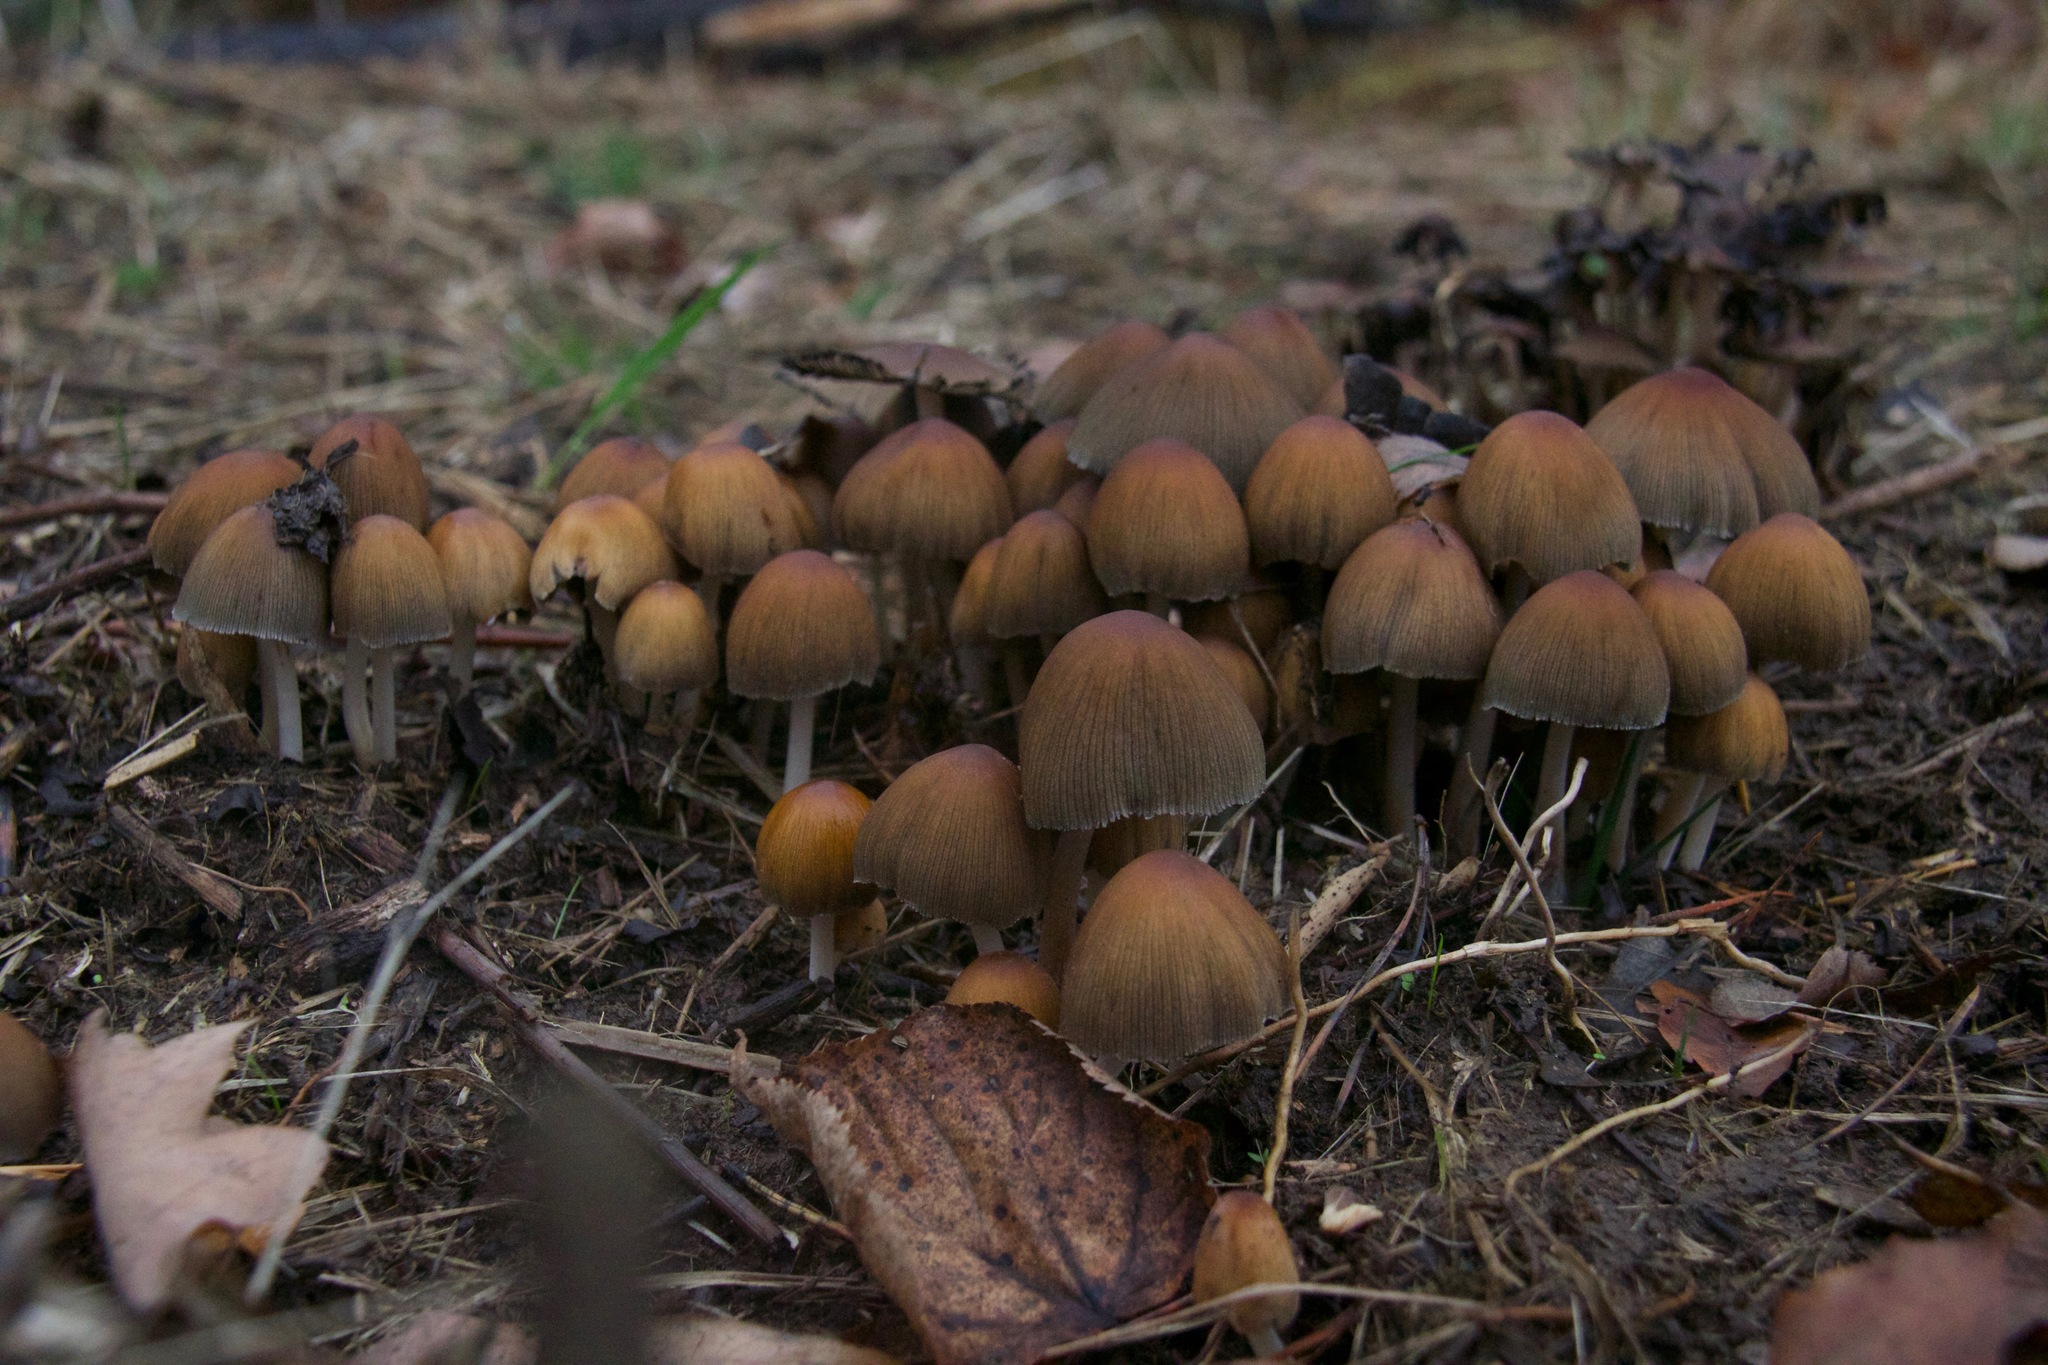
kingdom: Fungi
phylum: Basidiomycota
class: Agaricomycetes
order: Agaricales
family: Psathyrellaceae
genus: Coprinellus
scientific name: Coprinellus micaceus
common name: Glistening ink-cap
